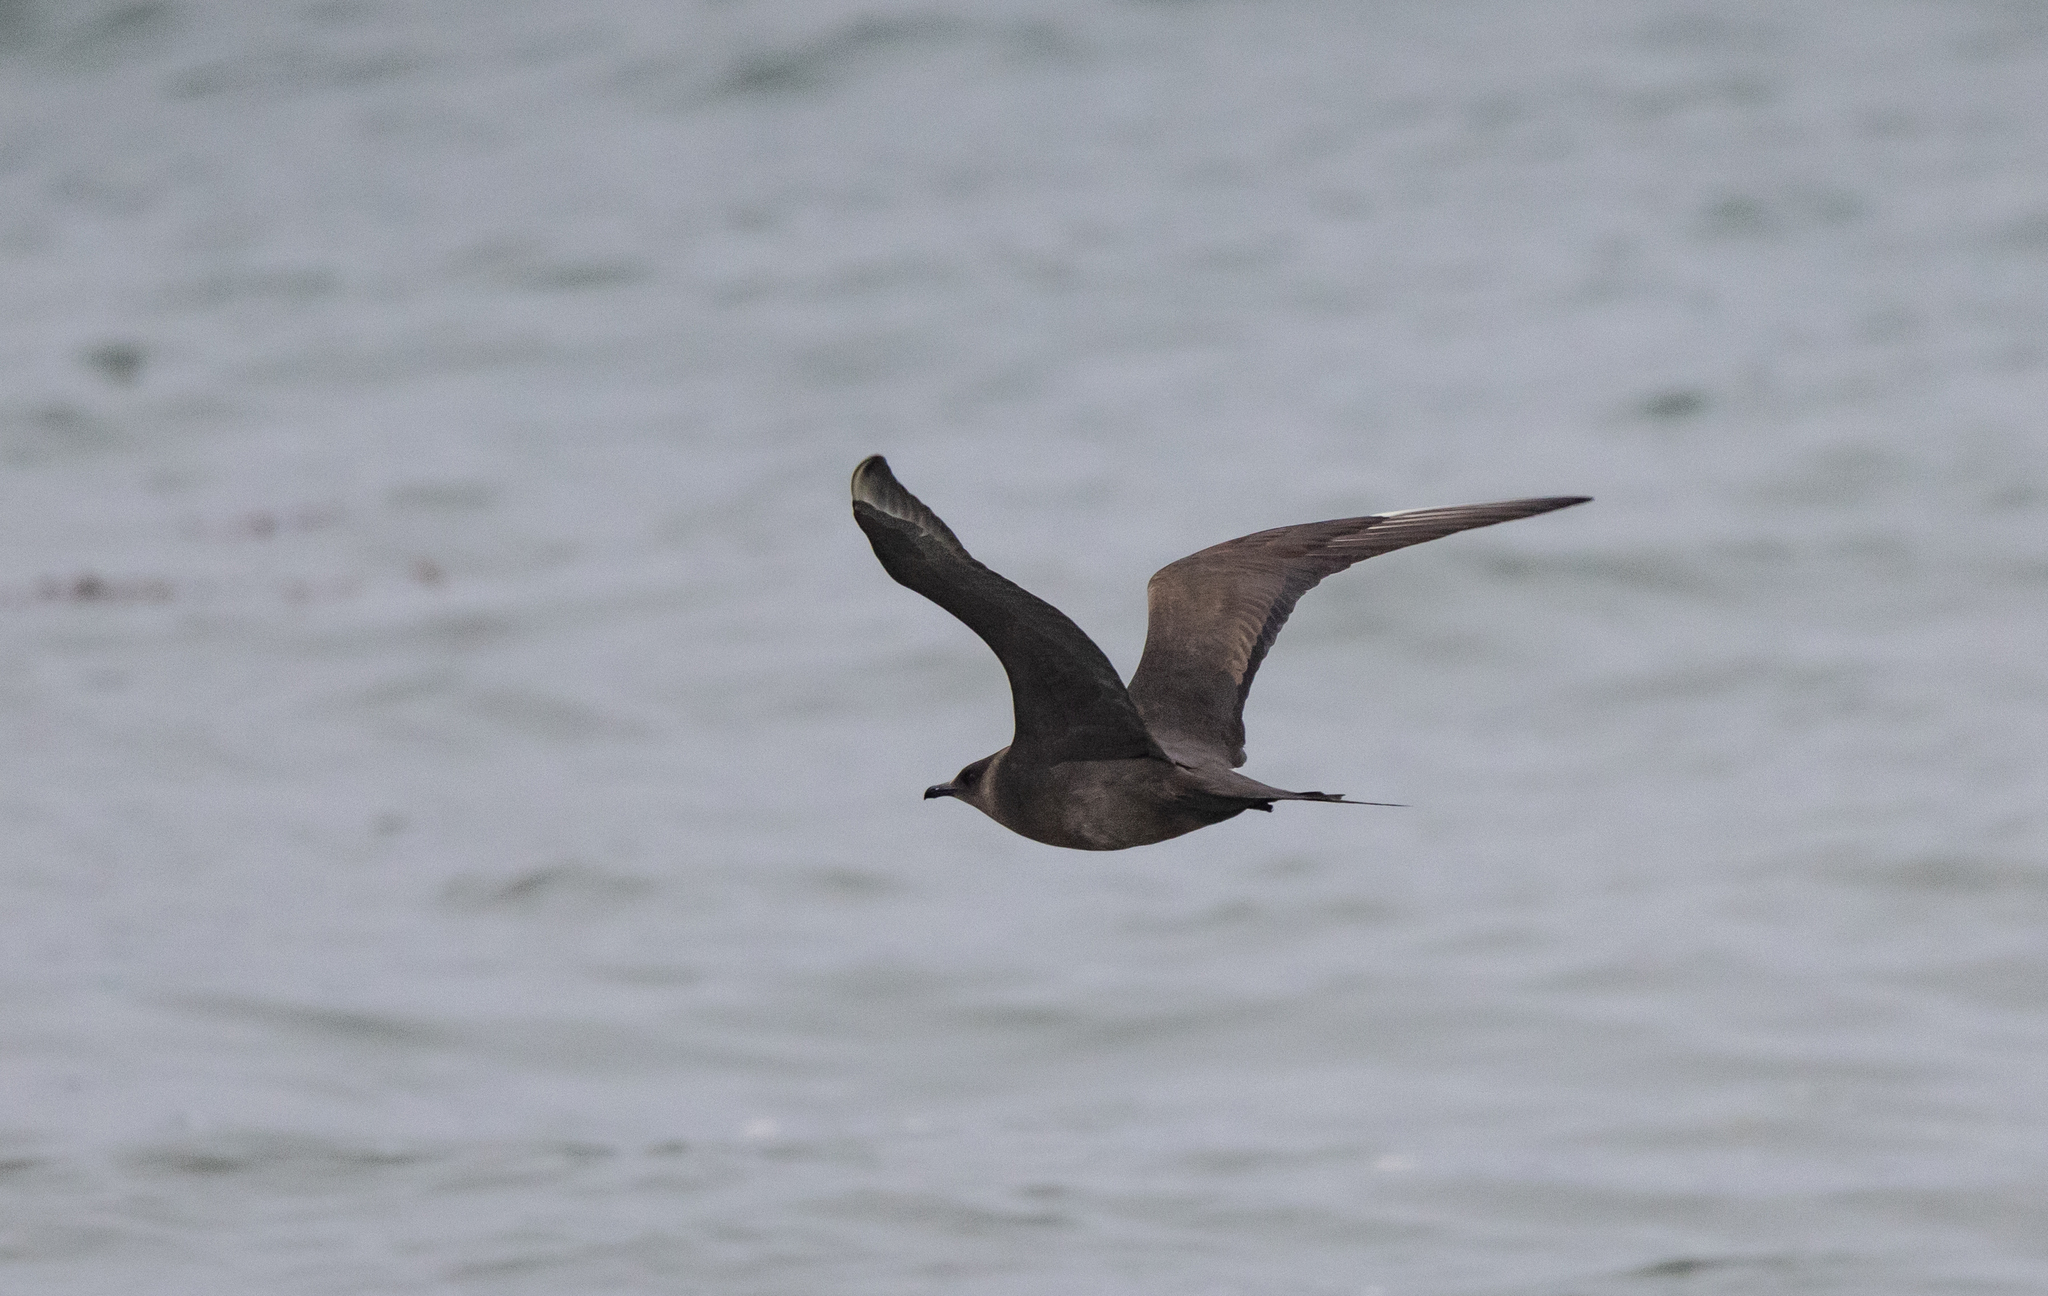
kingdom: Animalia
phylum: Chordata
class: Aves
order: Charadriiformes
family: Stercorariidae
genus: Stercorarius
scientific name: Stercorarius parasiticus
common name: Parasitic jaeger
